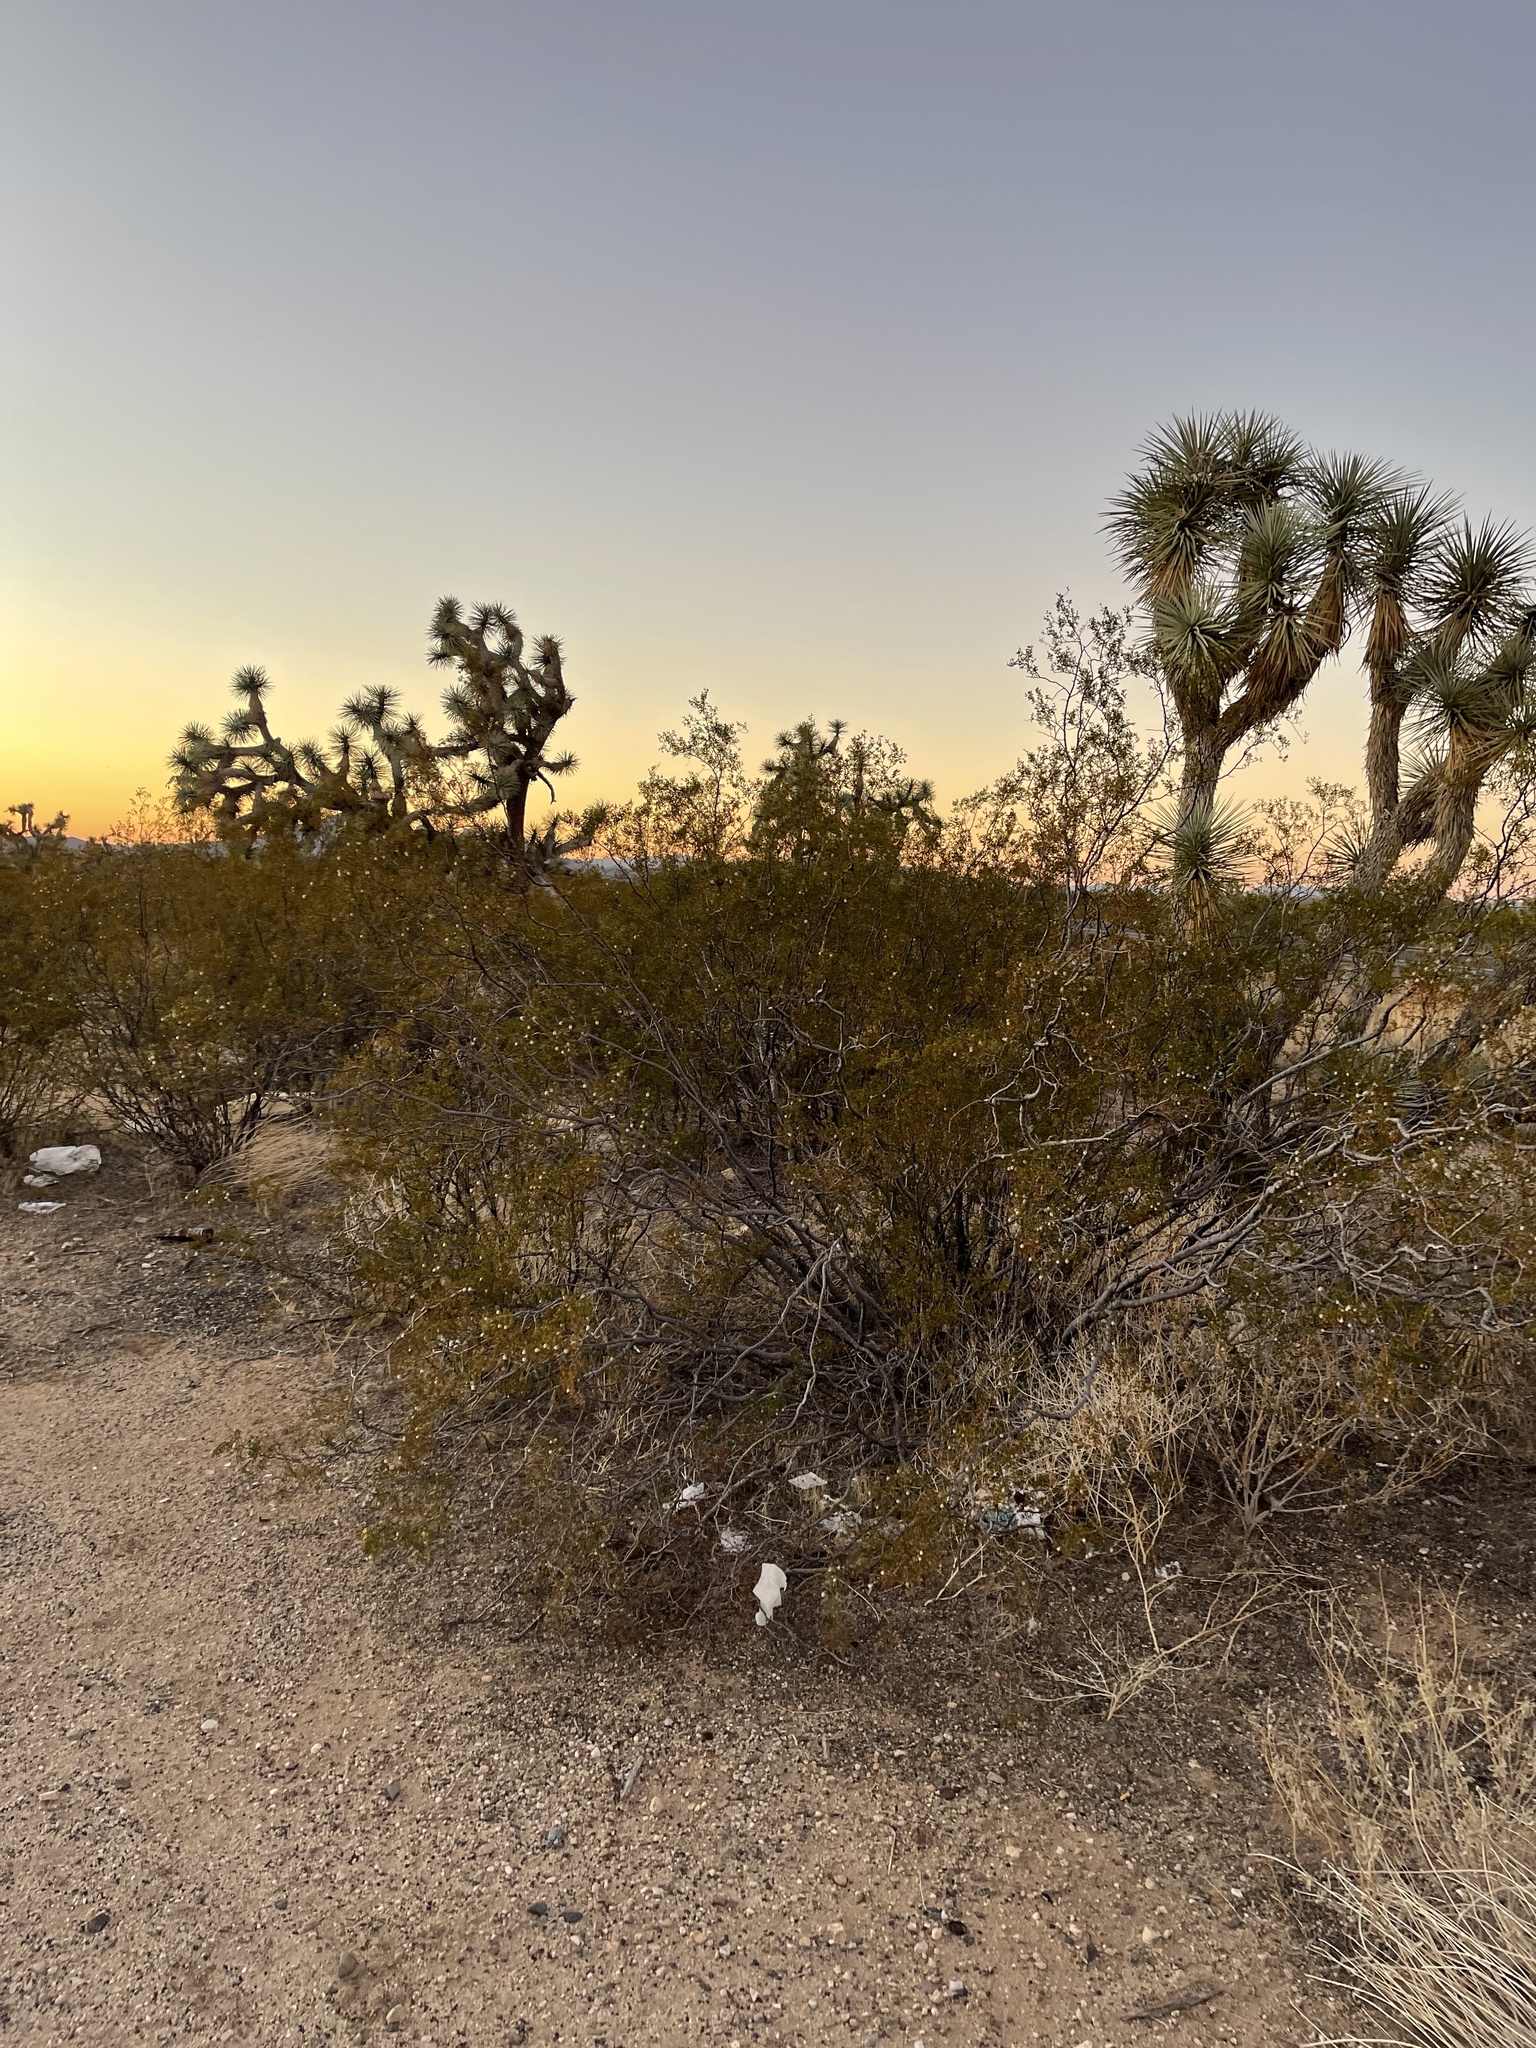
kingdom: Plantae
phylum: Tracheophyta
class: Magnoliopsida
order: Zygophyllales
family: Zygophyllaceae
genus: Larrea
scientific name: Larrea tridentata
